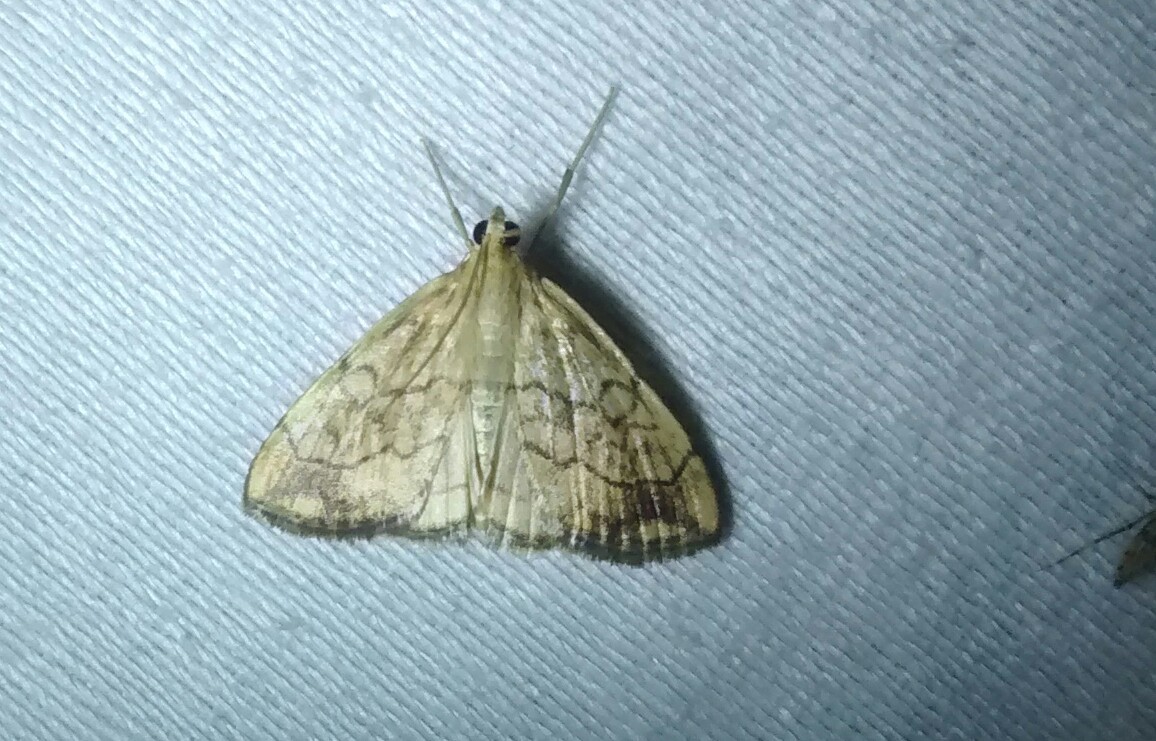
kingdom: Animalia
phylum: Arthropoda
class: Insecta
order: Lepidoptera
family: Crambidae
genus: Evergestis
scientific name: Evergestis pallidata
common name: Chequered pearl
